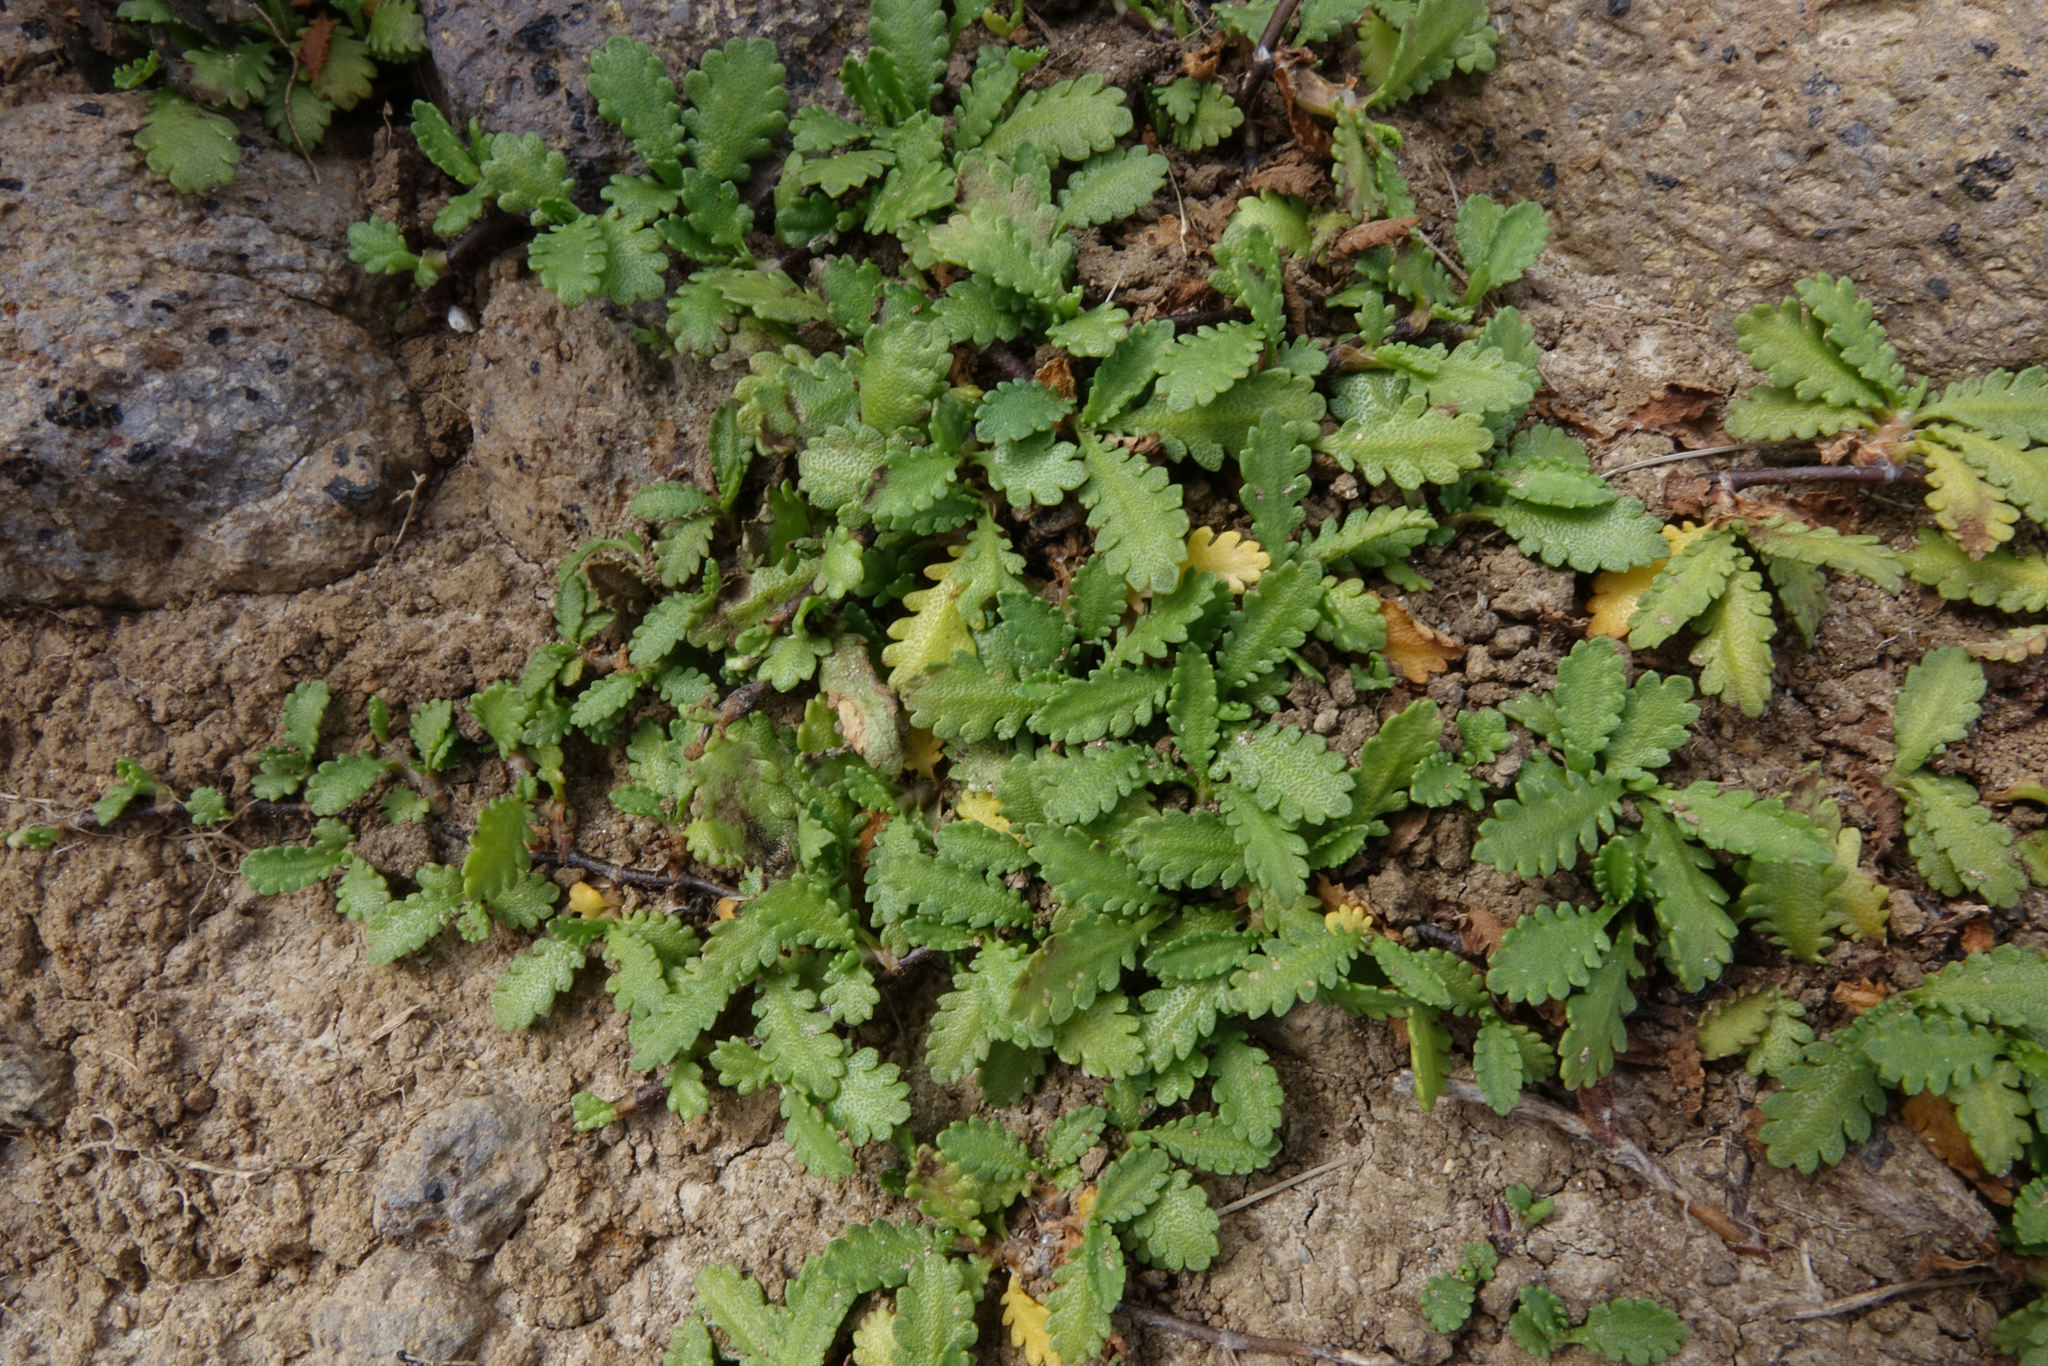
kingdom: Plantae
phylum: Tracheophyta
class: Magnoliopsida
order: Asterales
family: Asteraceae
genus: Leptinella
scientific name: Leptinella dioica
